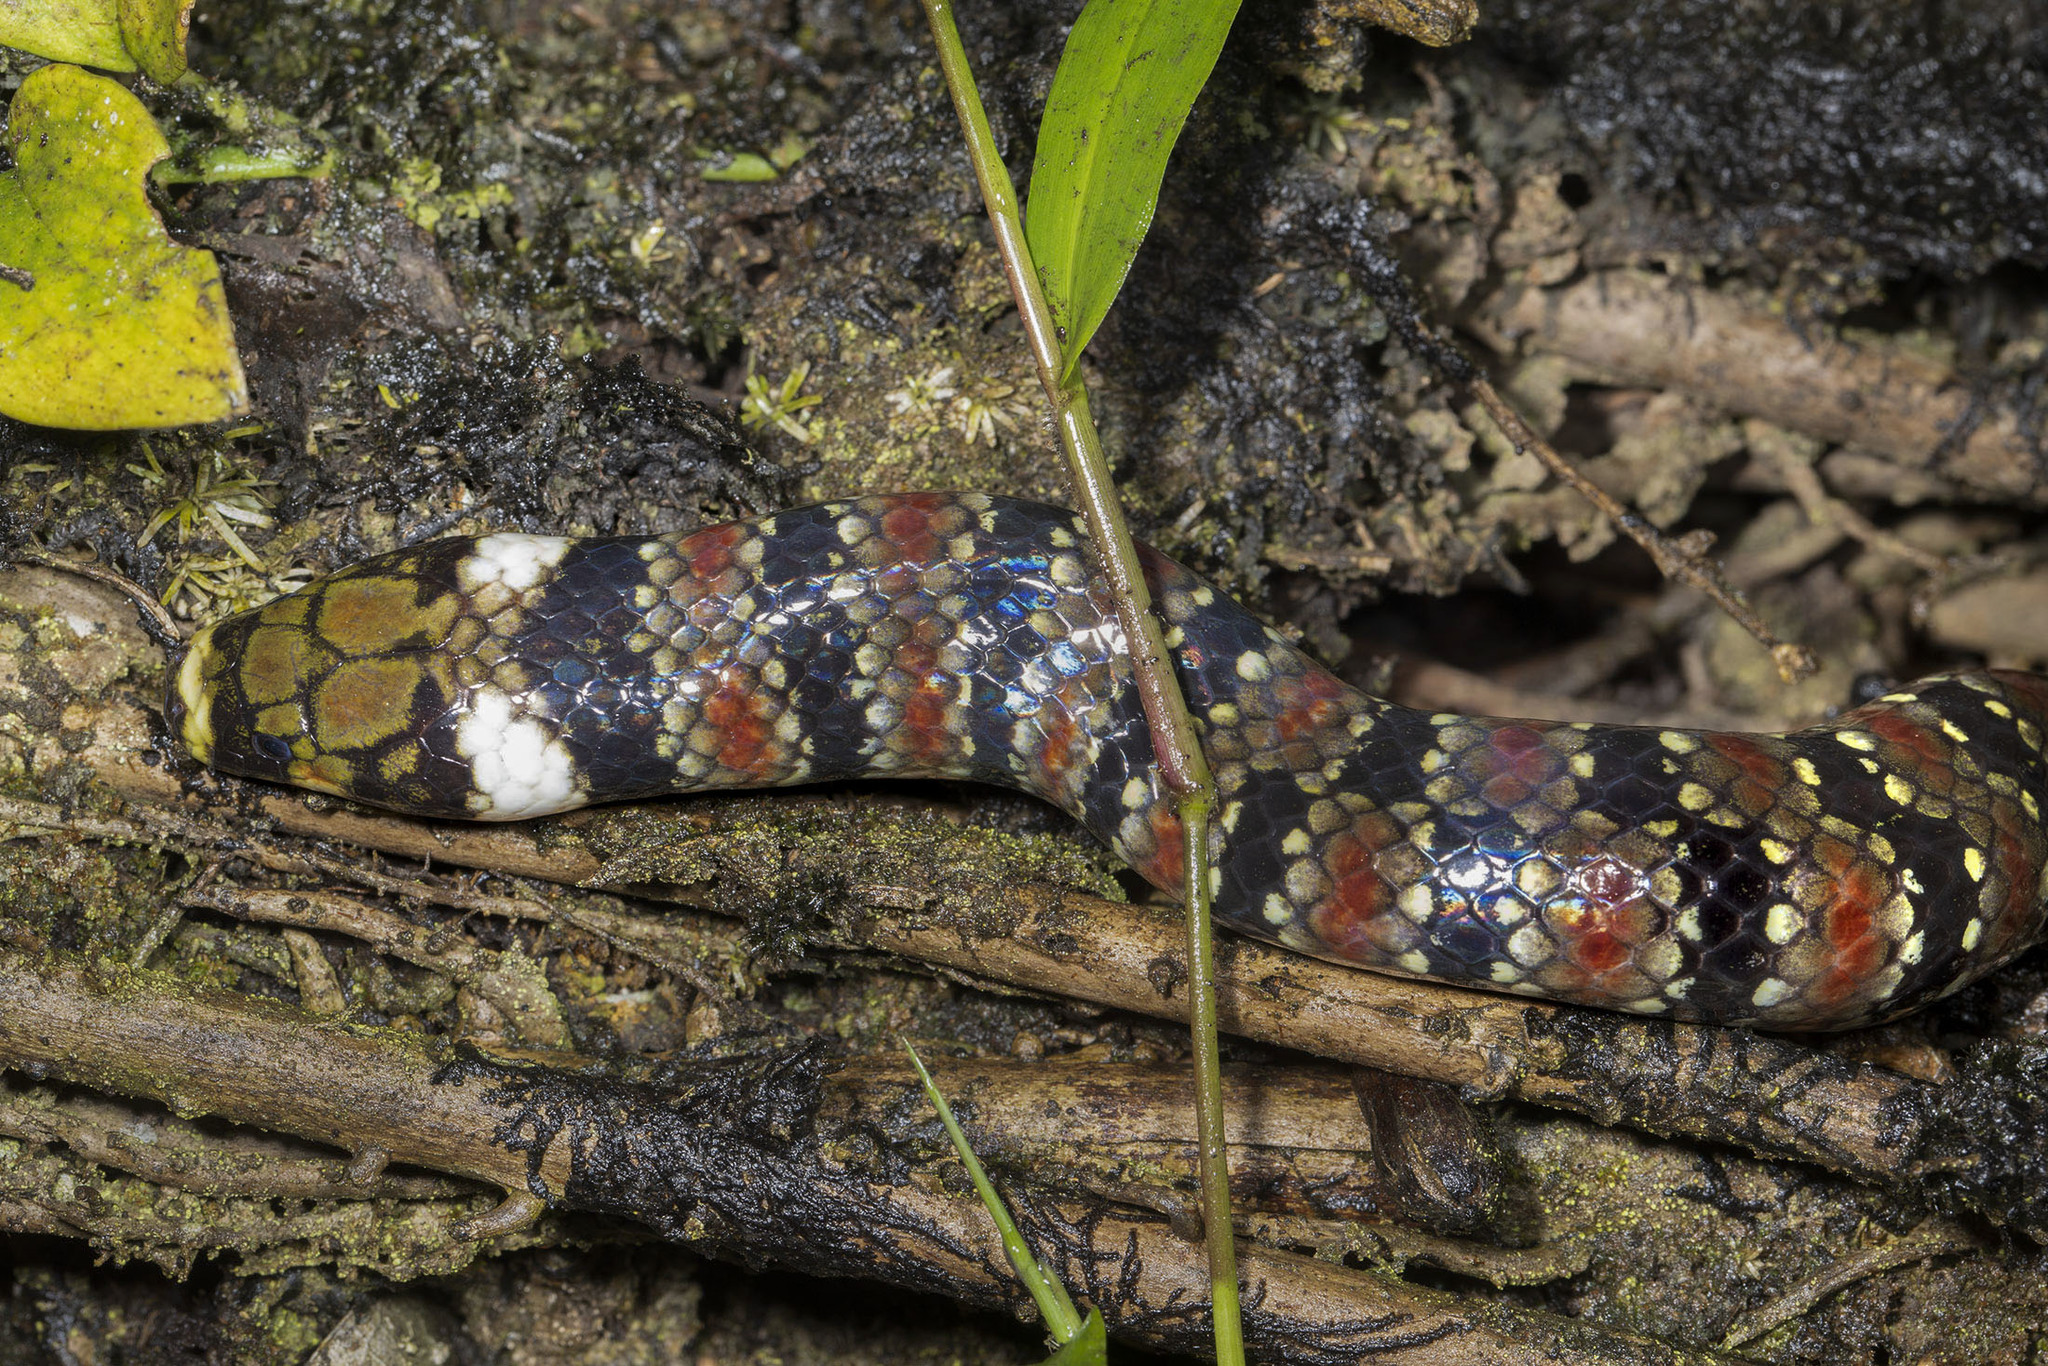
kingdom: Animalia
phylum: Chordata
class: Squamata
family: Colubridae
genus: Hydrops
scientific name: Hydrops martii
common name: Amazon water snake
